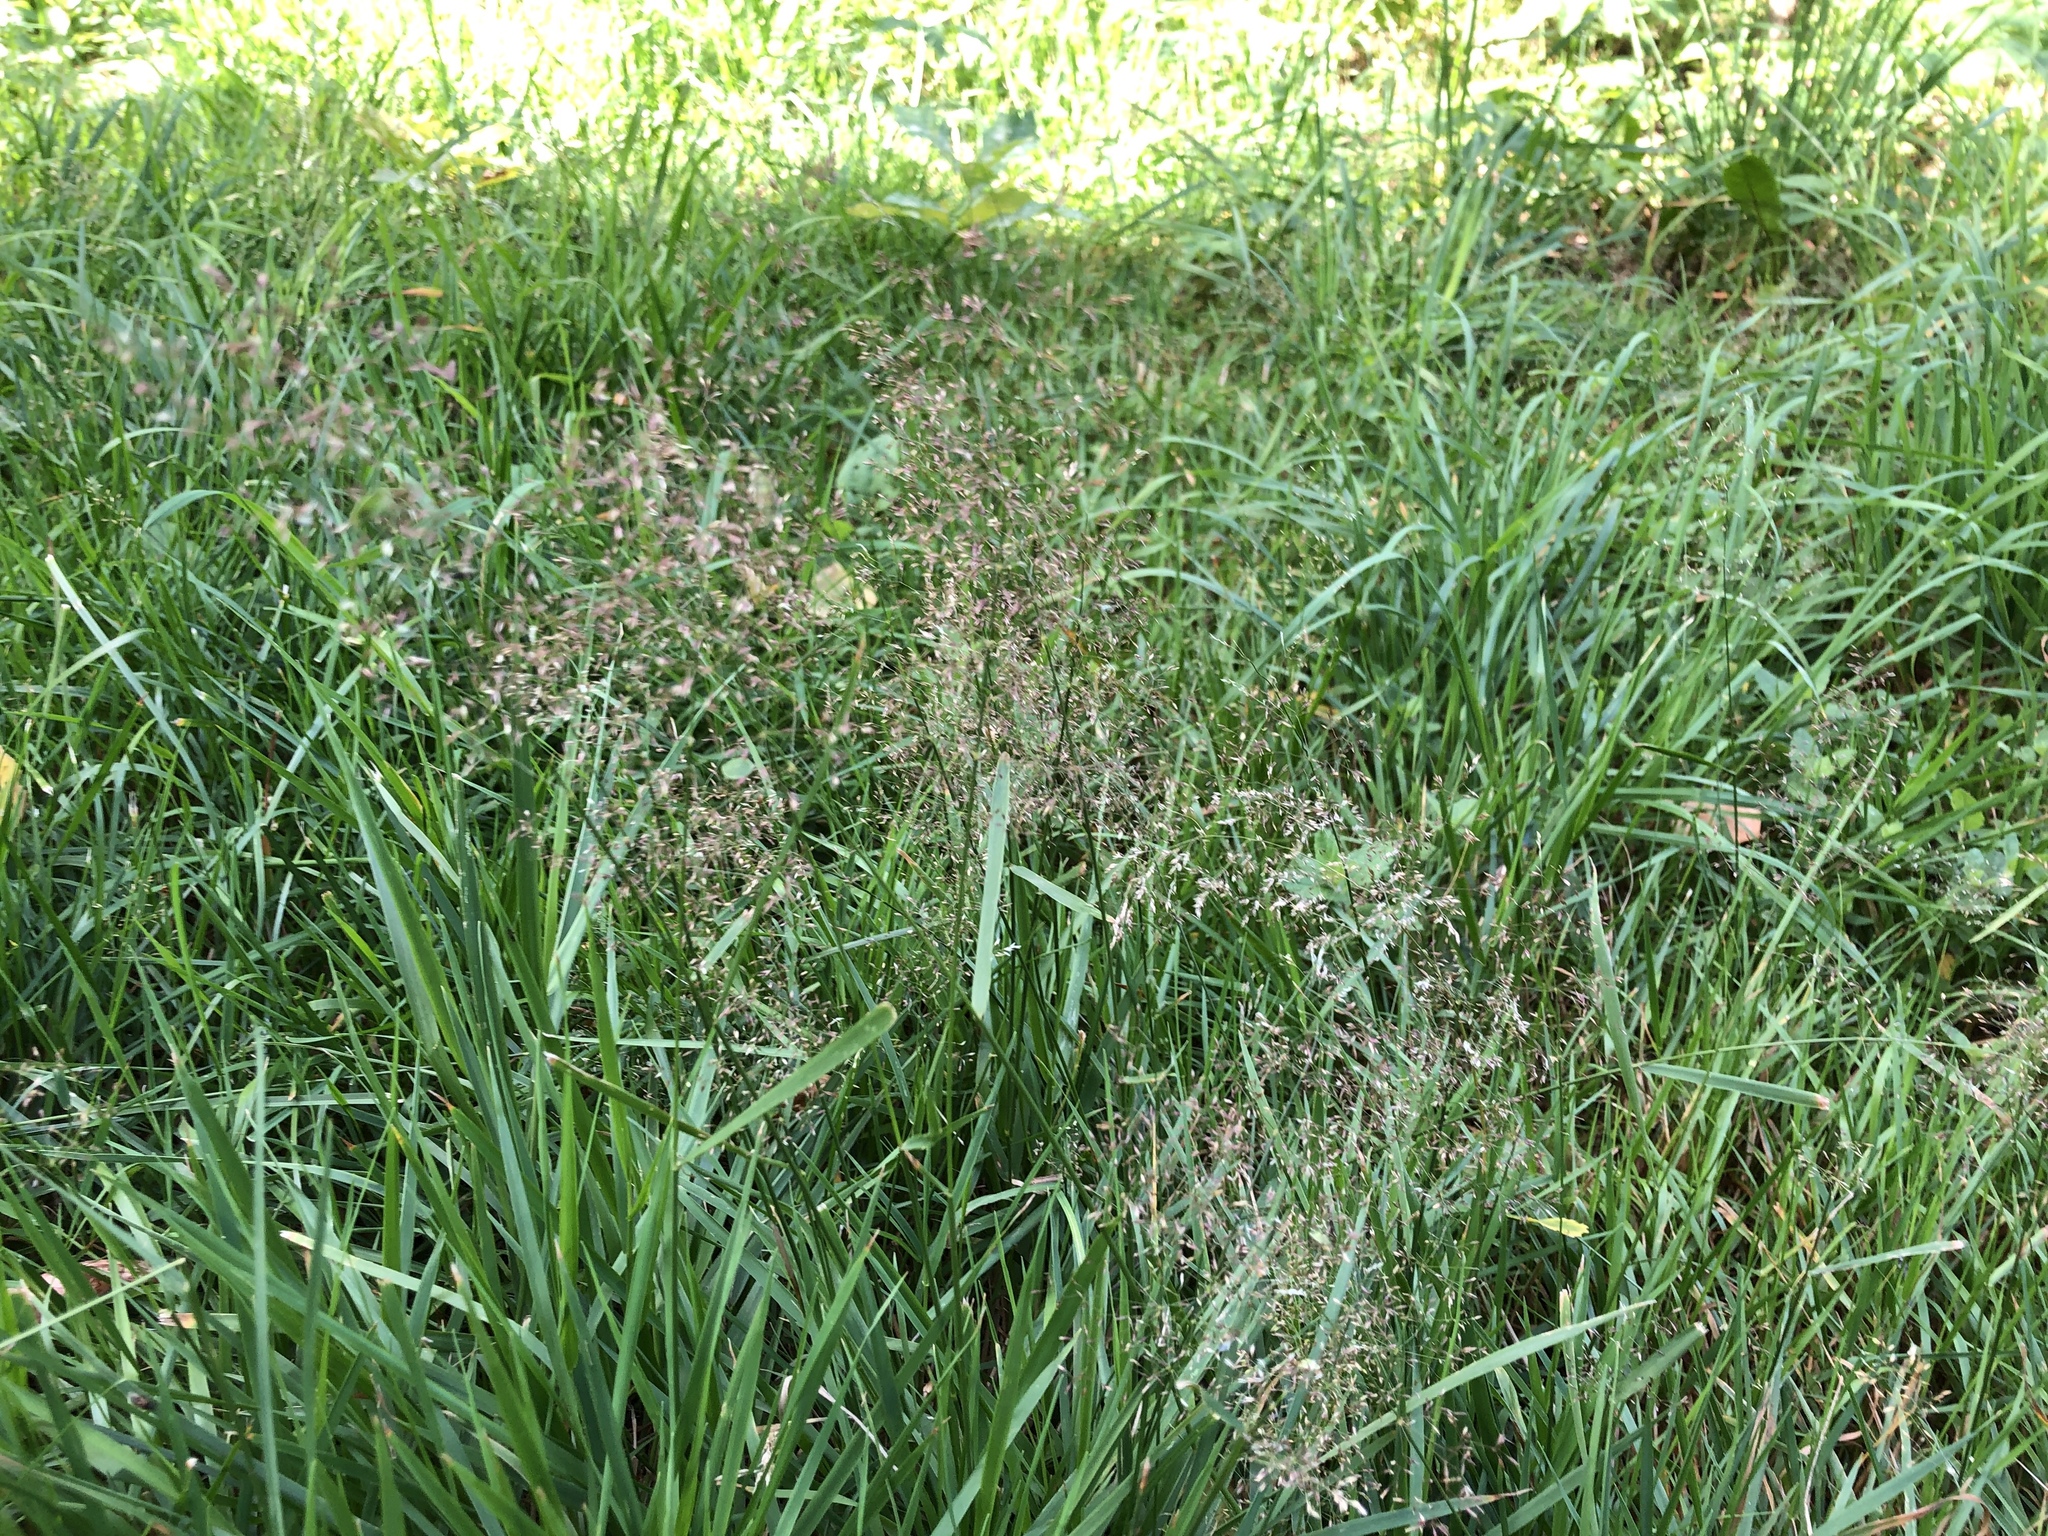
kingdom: Plantae
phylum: Tracheophyta
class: Liliopsida
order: Poales
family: Poaceae
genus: Agrostis
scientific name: Agrostis capillaris
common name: Colonial bentgrass
